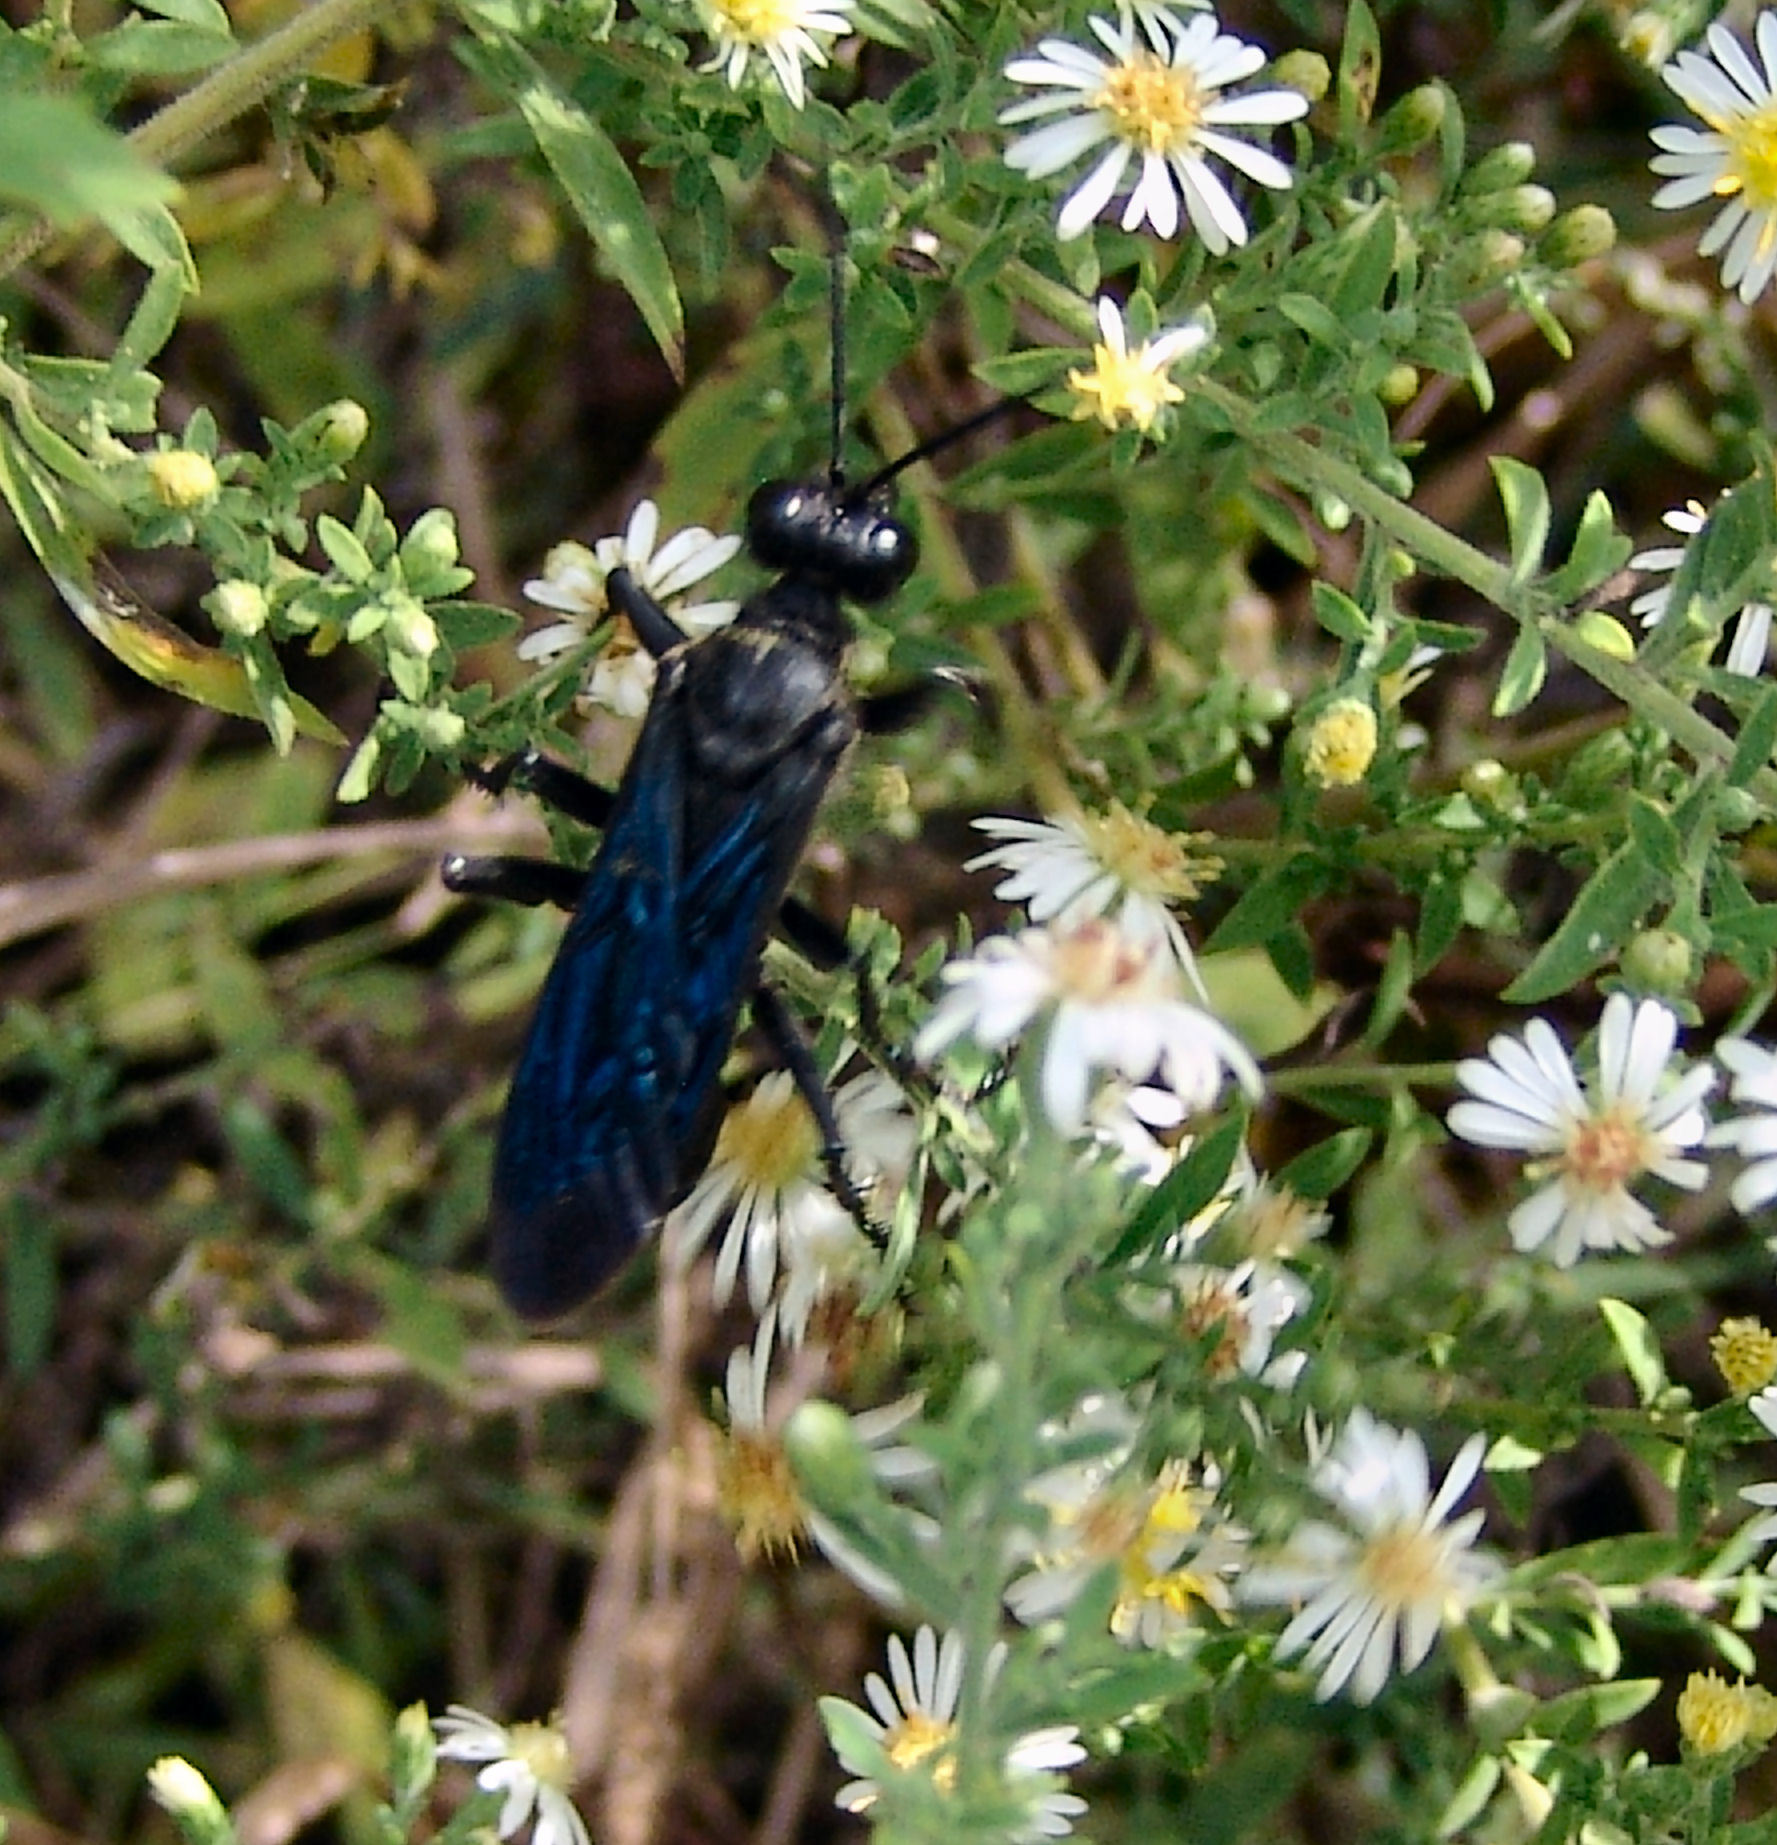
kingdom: Animalia
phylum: Arthropoda
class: Insecta
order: Hymenoptera
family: Sphecidae
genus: Sphex
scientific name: Sphex pensylvanicus
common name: Great black digger wasp
